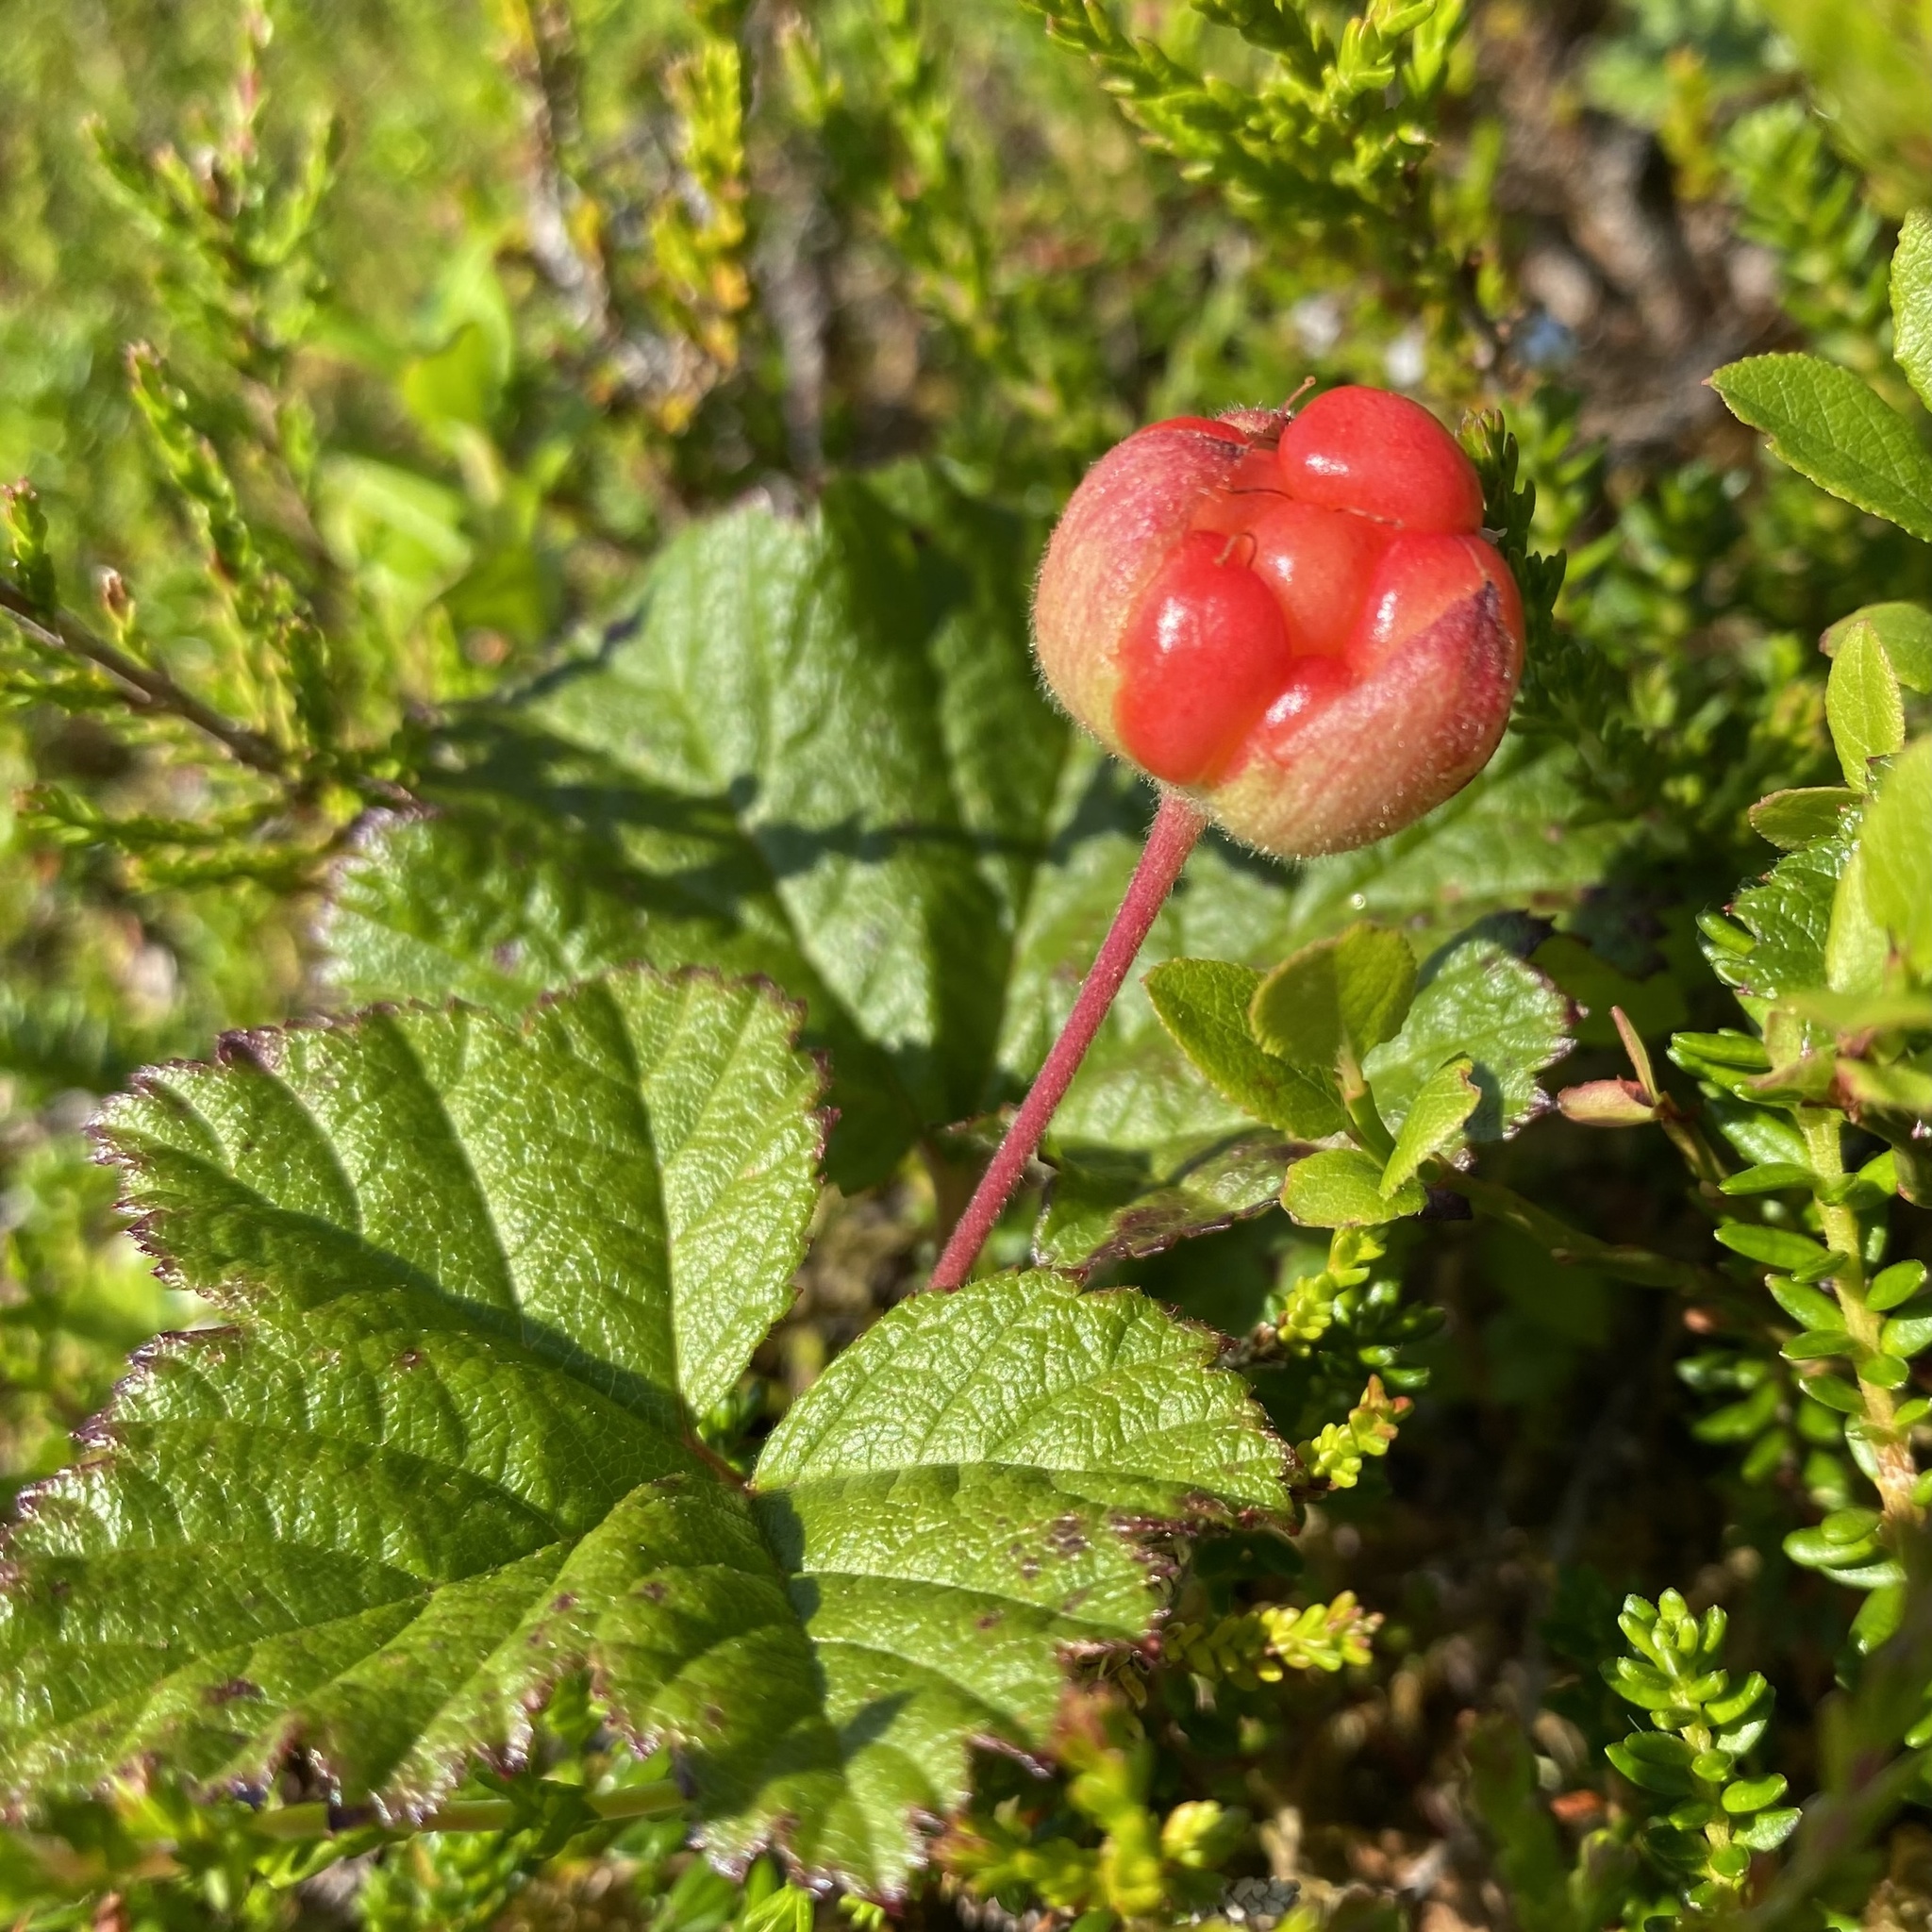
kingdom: Plantae
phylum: Tracheophyta
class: Magnoliopsida
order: Rosales
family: Rosaceae
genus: Rubus
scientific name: Rubus chamaemorus
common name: Cloudberry
